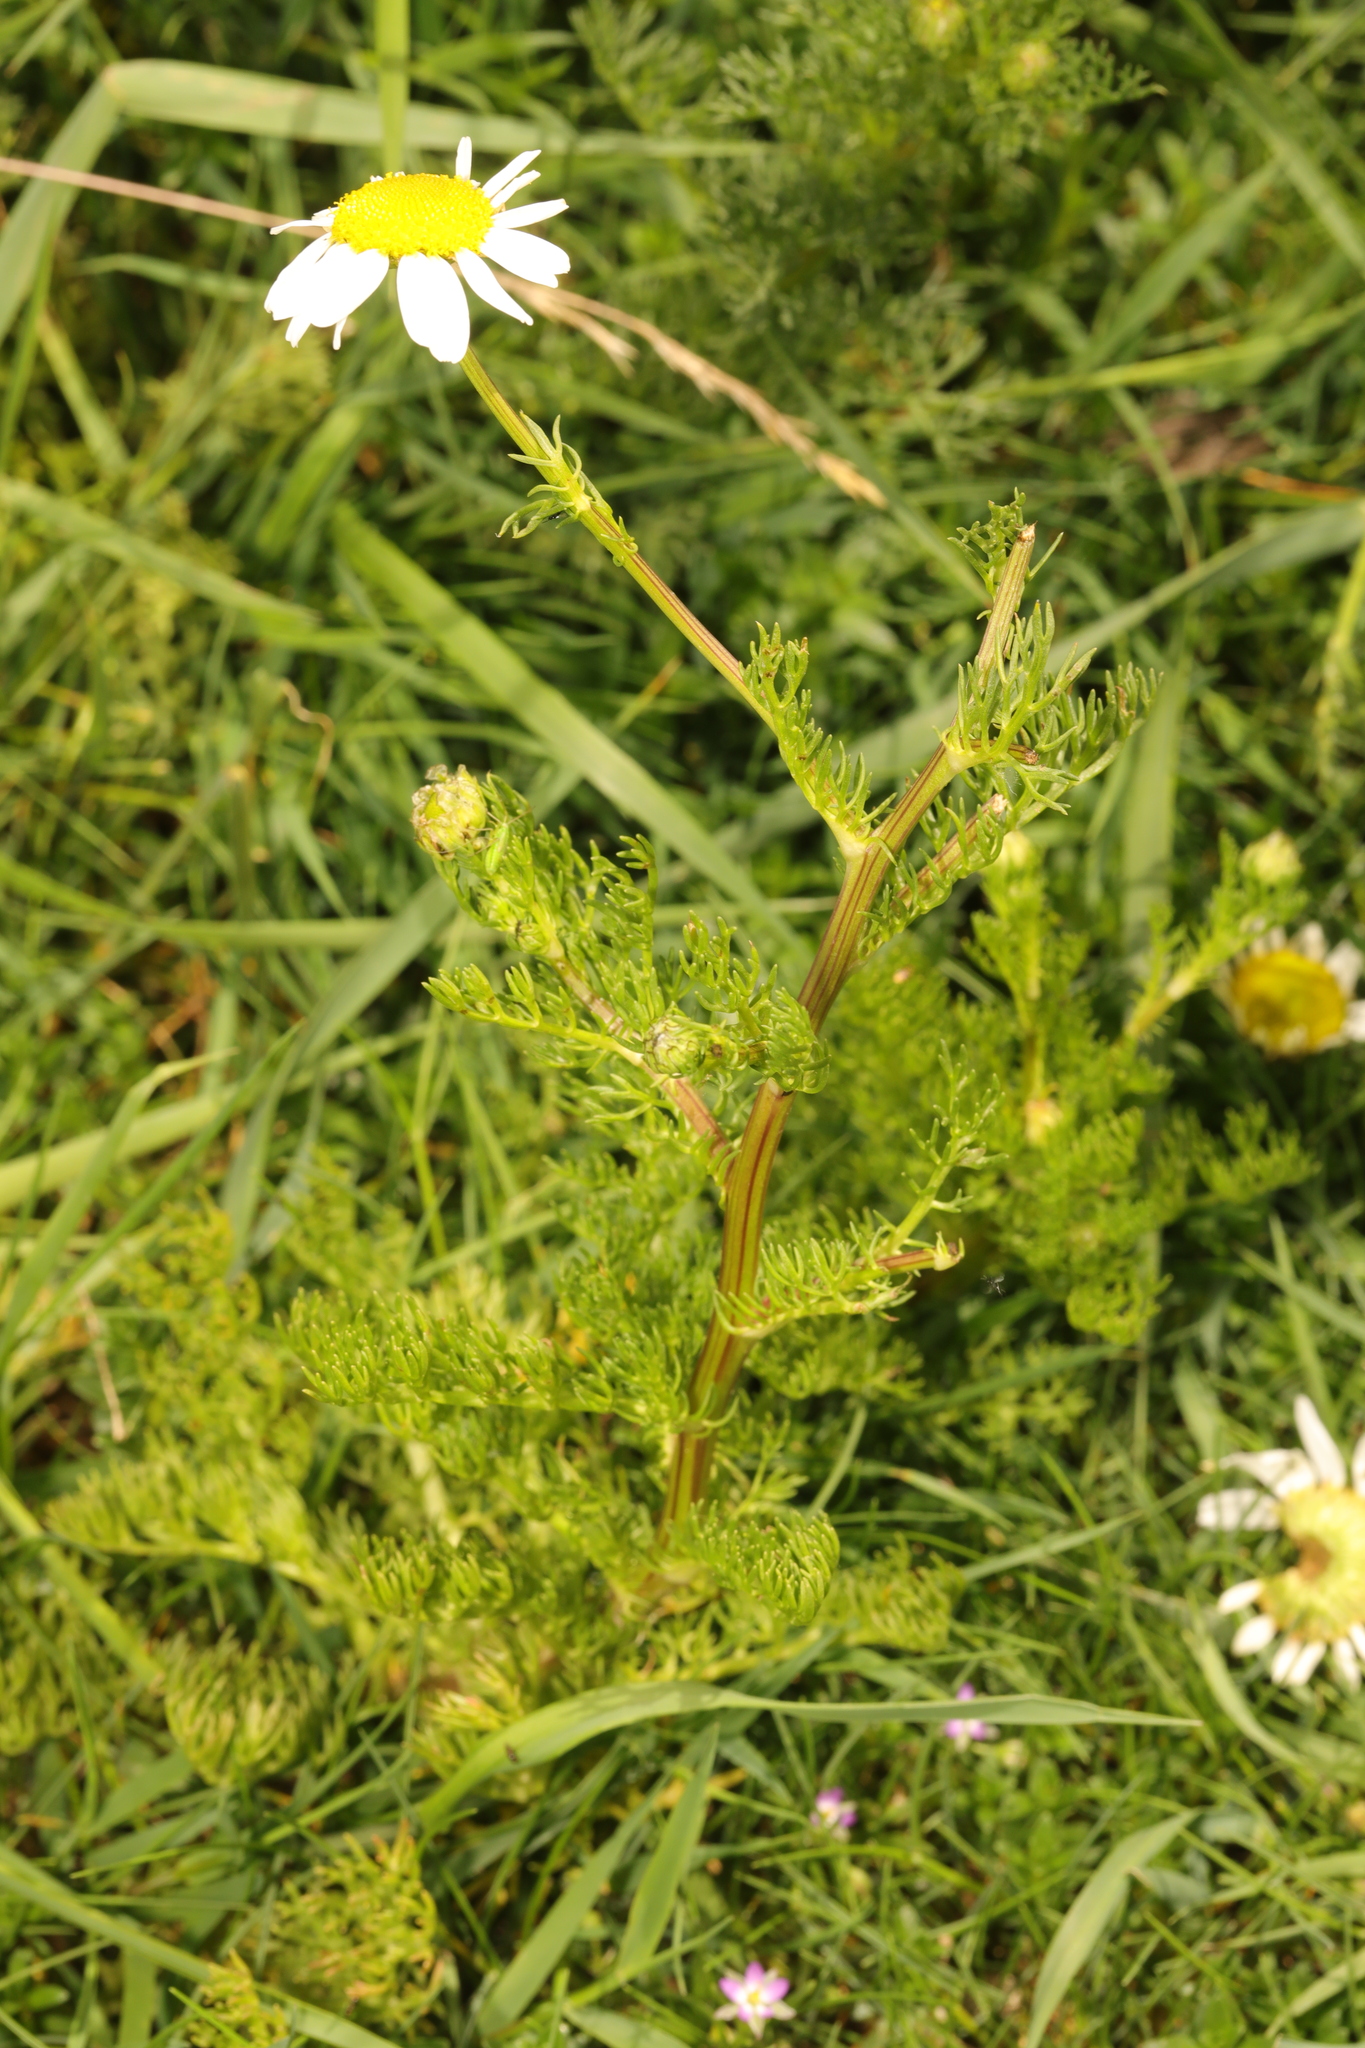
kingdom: Plantae
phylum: Tracheophyta
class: Magnoliopsida
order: Asterales
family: Asteraceae
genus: Tripleurospermum
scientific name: Tripleurospermum maritimum
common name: Sea mayweed
